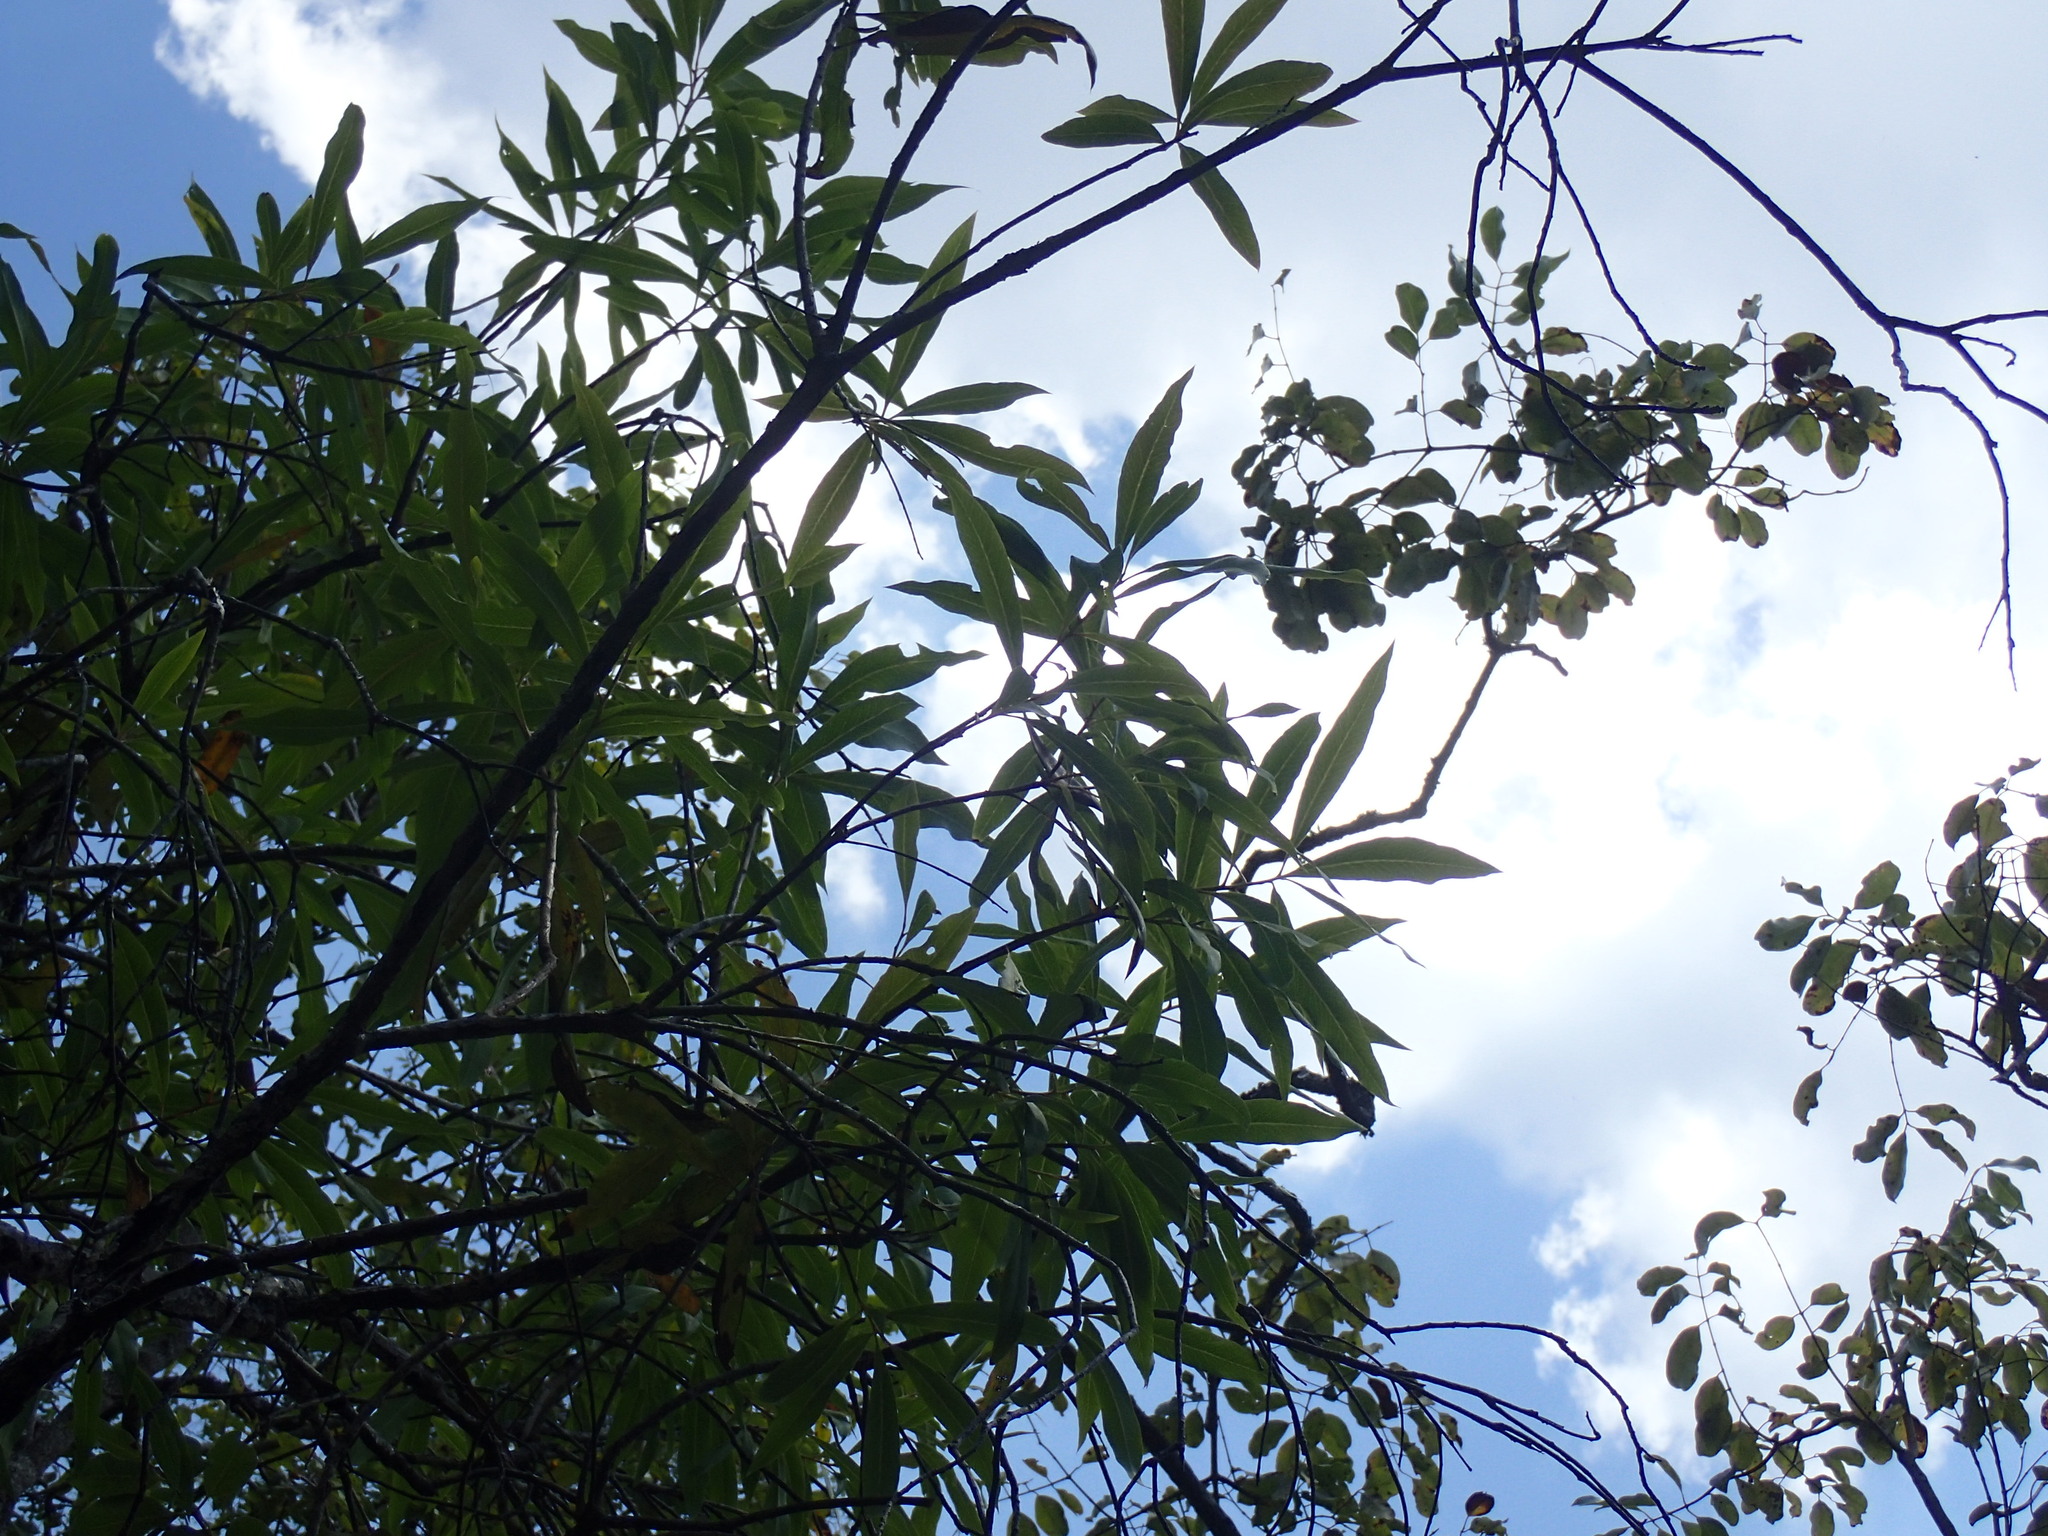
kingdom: Plantae
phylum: Tracheophyta
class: Magnoliopsida
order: Proteales
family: Proteaceae
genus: Faurea
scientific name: Faurea saligna
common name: African bean
